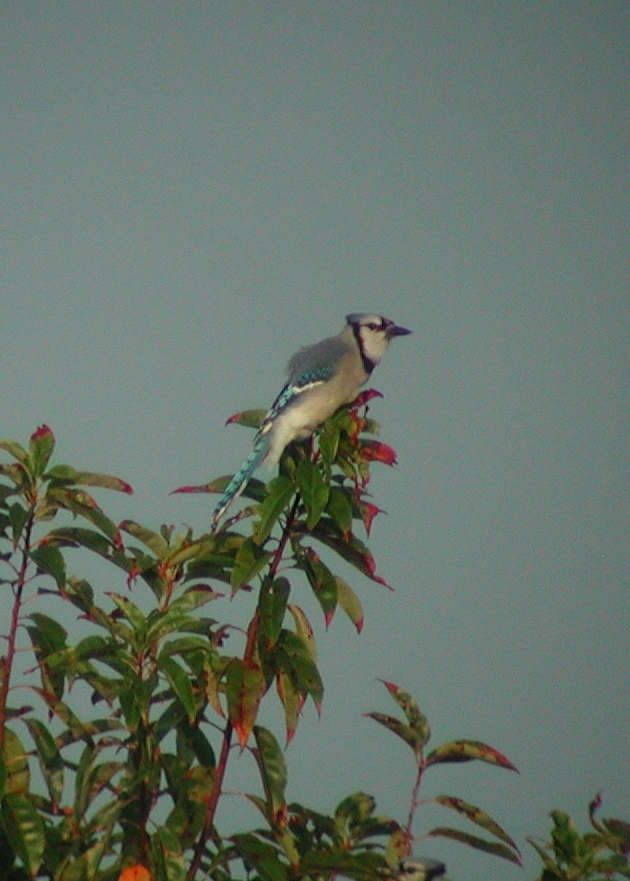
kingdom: Animalia
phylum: Chordata
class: Aves
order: Passeriformes
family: Corvidae
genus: Cyanocitta
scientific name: Cyanocitta cristata
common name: Blue jay
